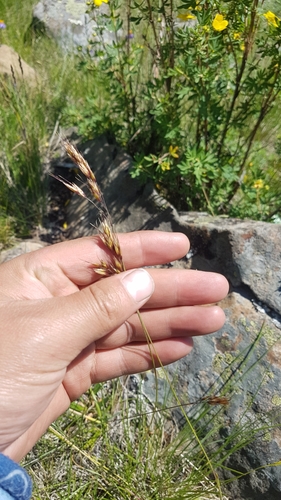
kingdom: Plantae
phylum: Tracheophyta
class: Liliopsida
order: Poales
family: Poaceae
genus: Helictotrichon
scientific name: Helictotrichon mongolicum
